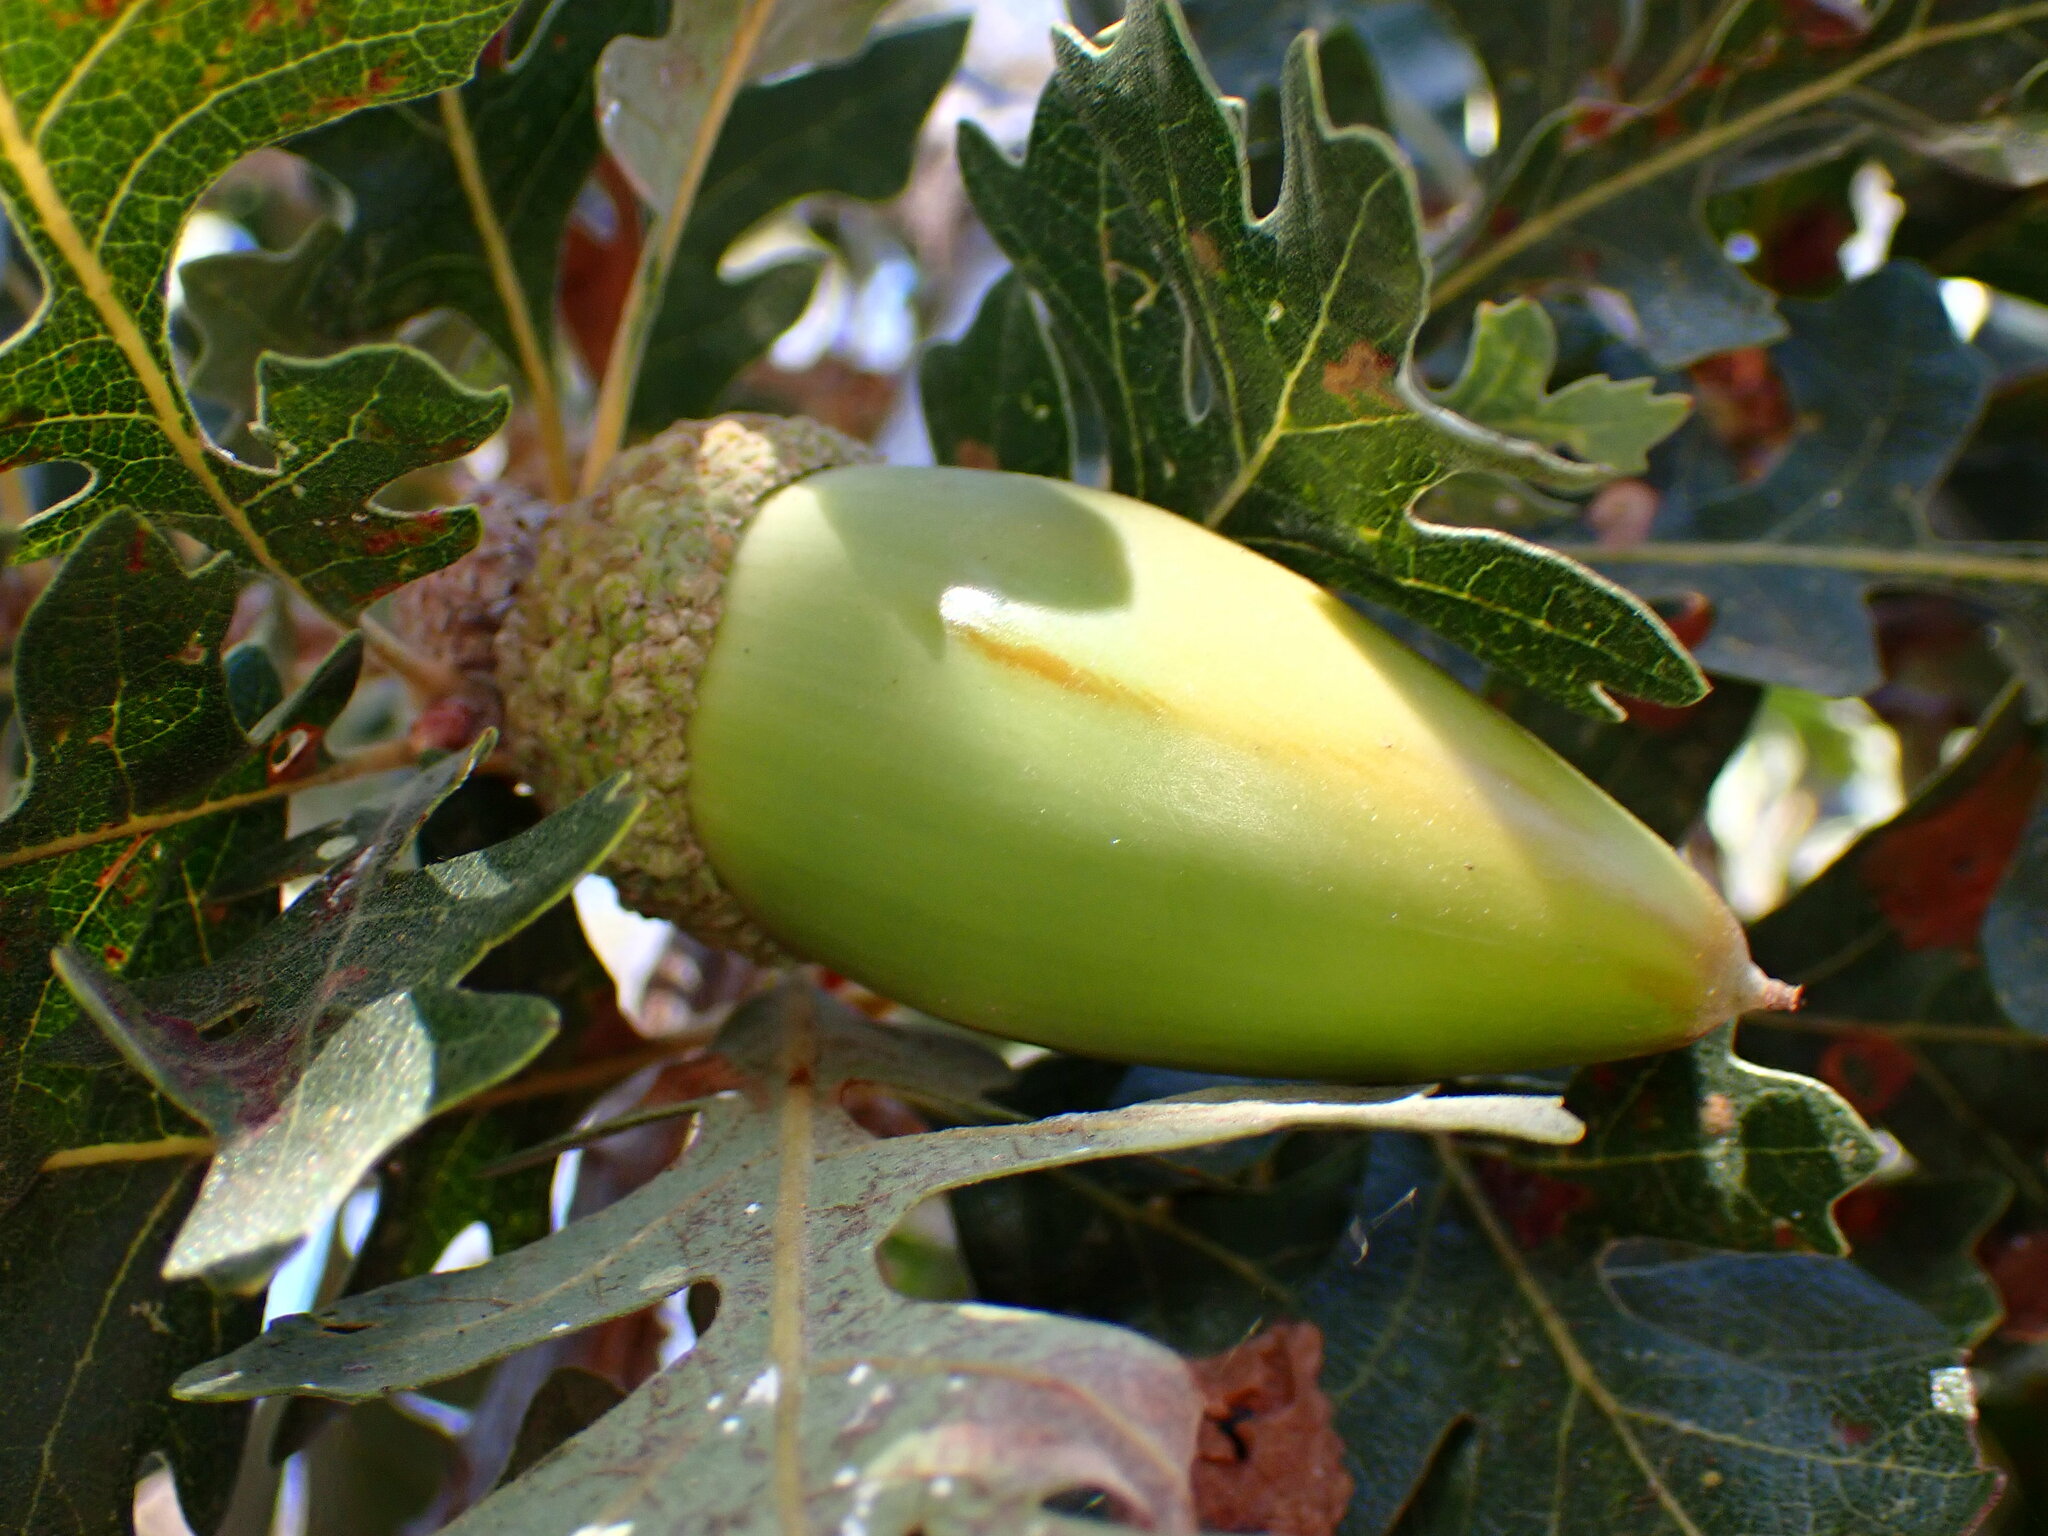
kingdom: Plantae
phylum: Tracheophyta
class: Magnoliopsida
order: Fagales
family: Fagaceae
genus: Quercus
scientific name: Quercus lobata
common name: Valley oak
